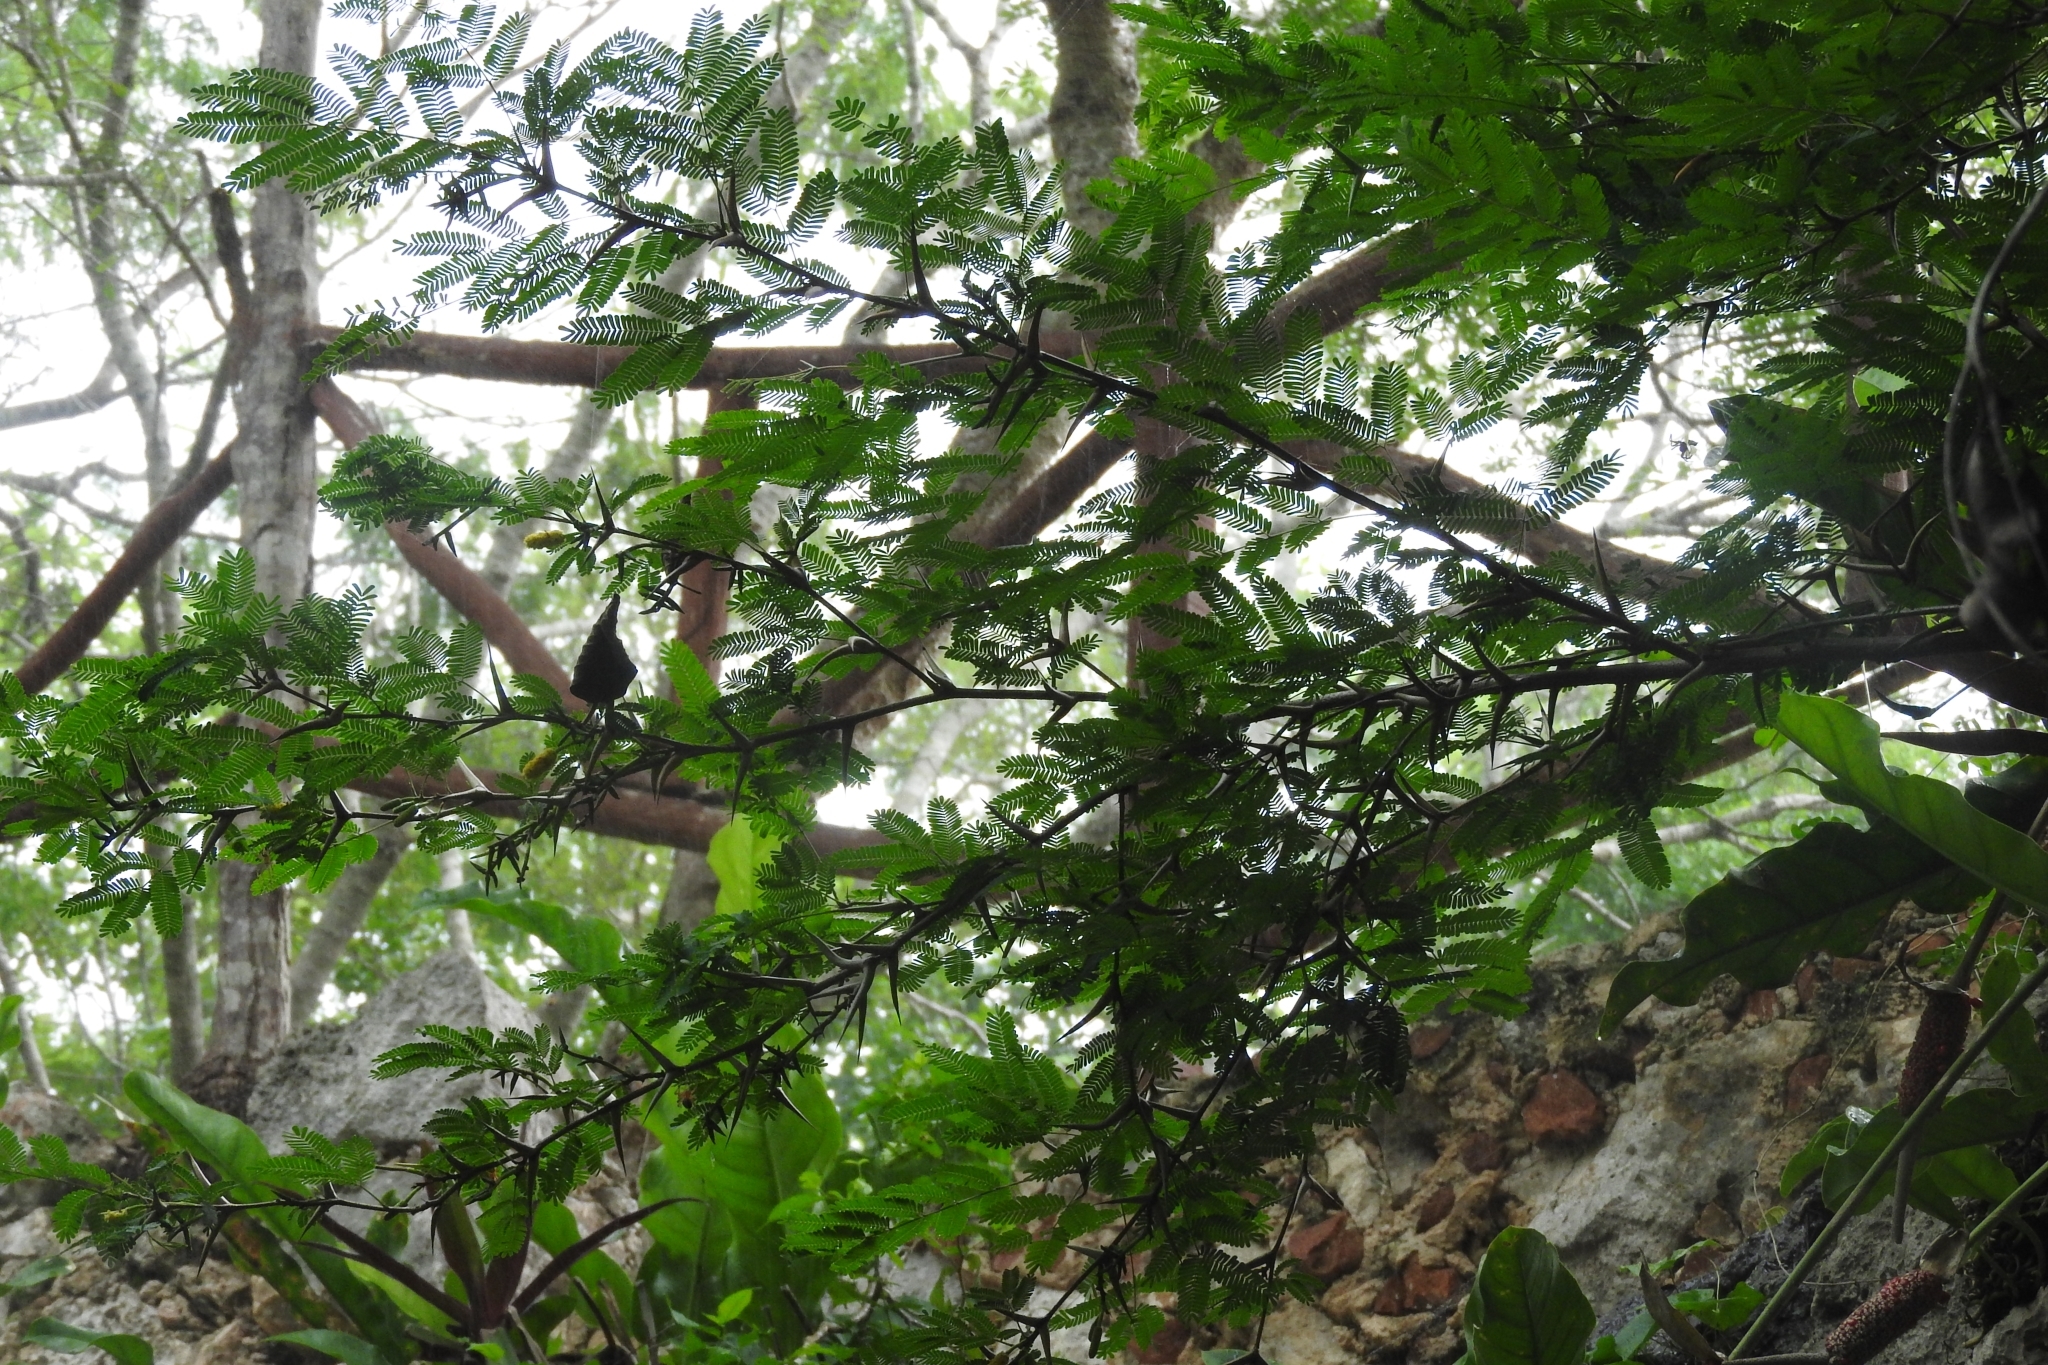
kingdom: Plantae
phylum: Tracheophyta
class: Magnoliopsida
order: Fabales
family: Fabaceae
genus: Vachellia
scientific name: Vachellia cornigera
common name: Bullhorn wattle
